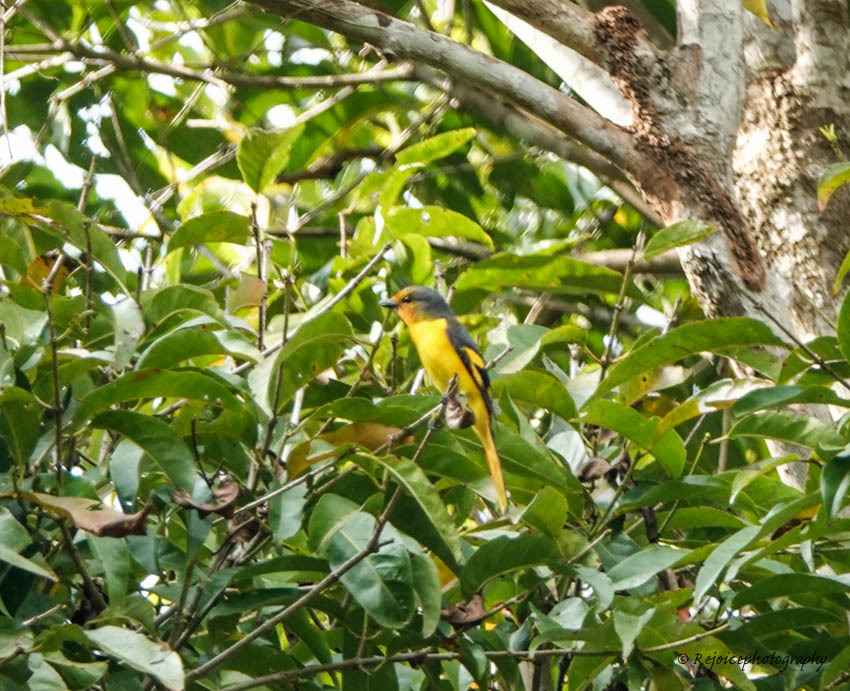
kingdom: Animalia
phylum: Chordata
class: Aves
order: Passeriformes
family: Campephagidae
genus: Pericrocotus
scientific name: Pericrocotus speciosus
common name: Scarlet minivet
